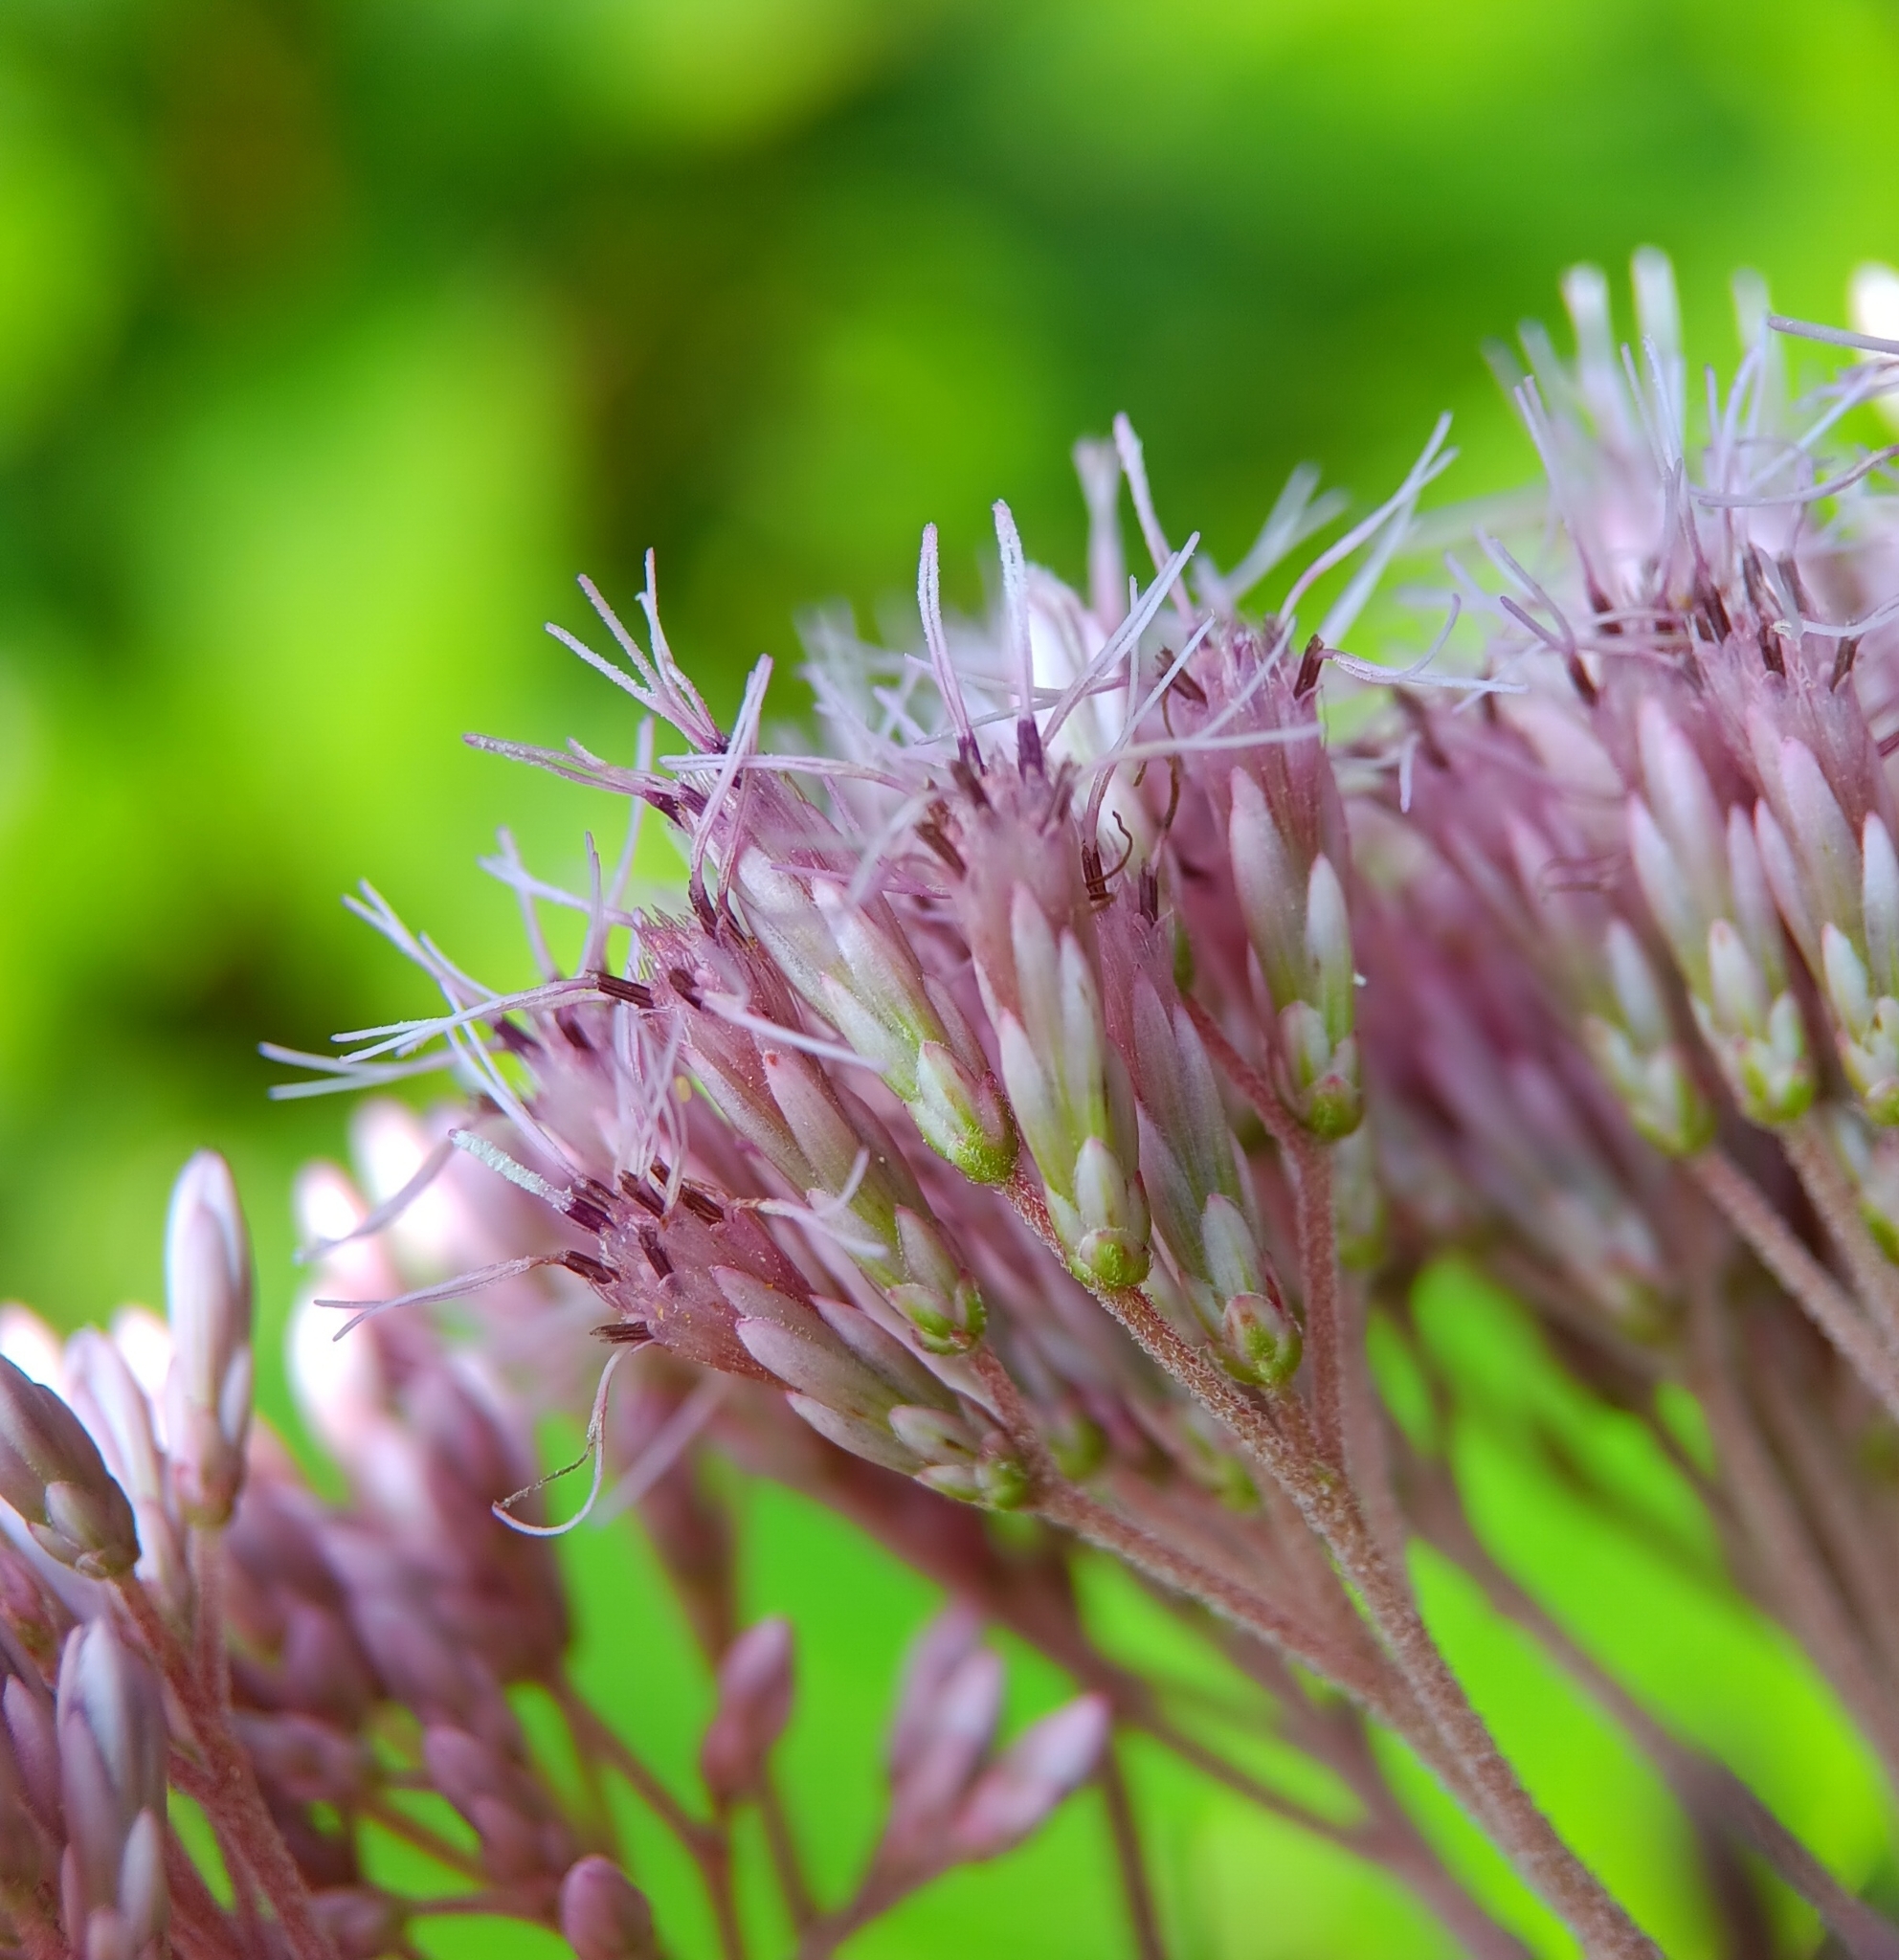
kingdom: Plantae
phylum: Tracheophyta
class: Magnoliopsida
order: Asterales
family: Asteraceae
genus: Eutrochium
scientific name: Eutrochium dubium
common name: Coastal plain joe pye weed
